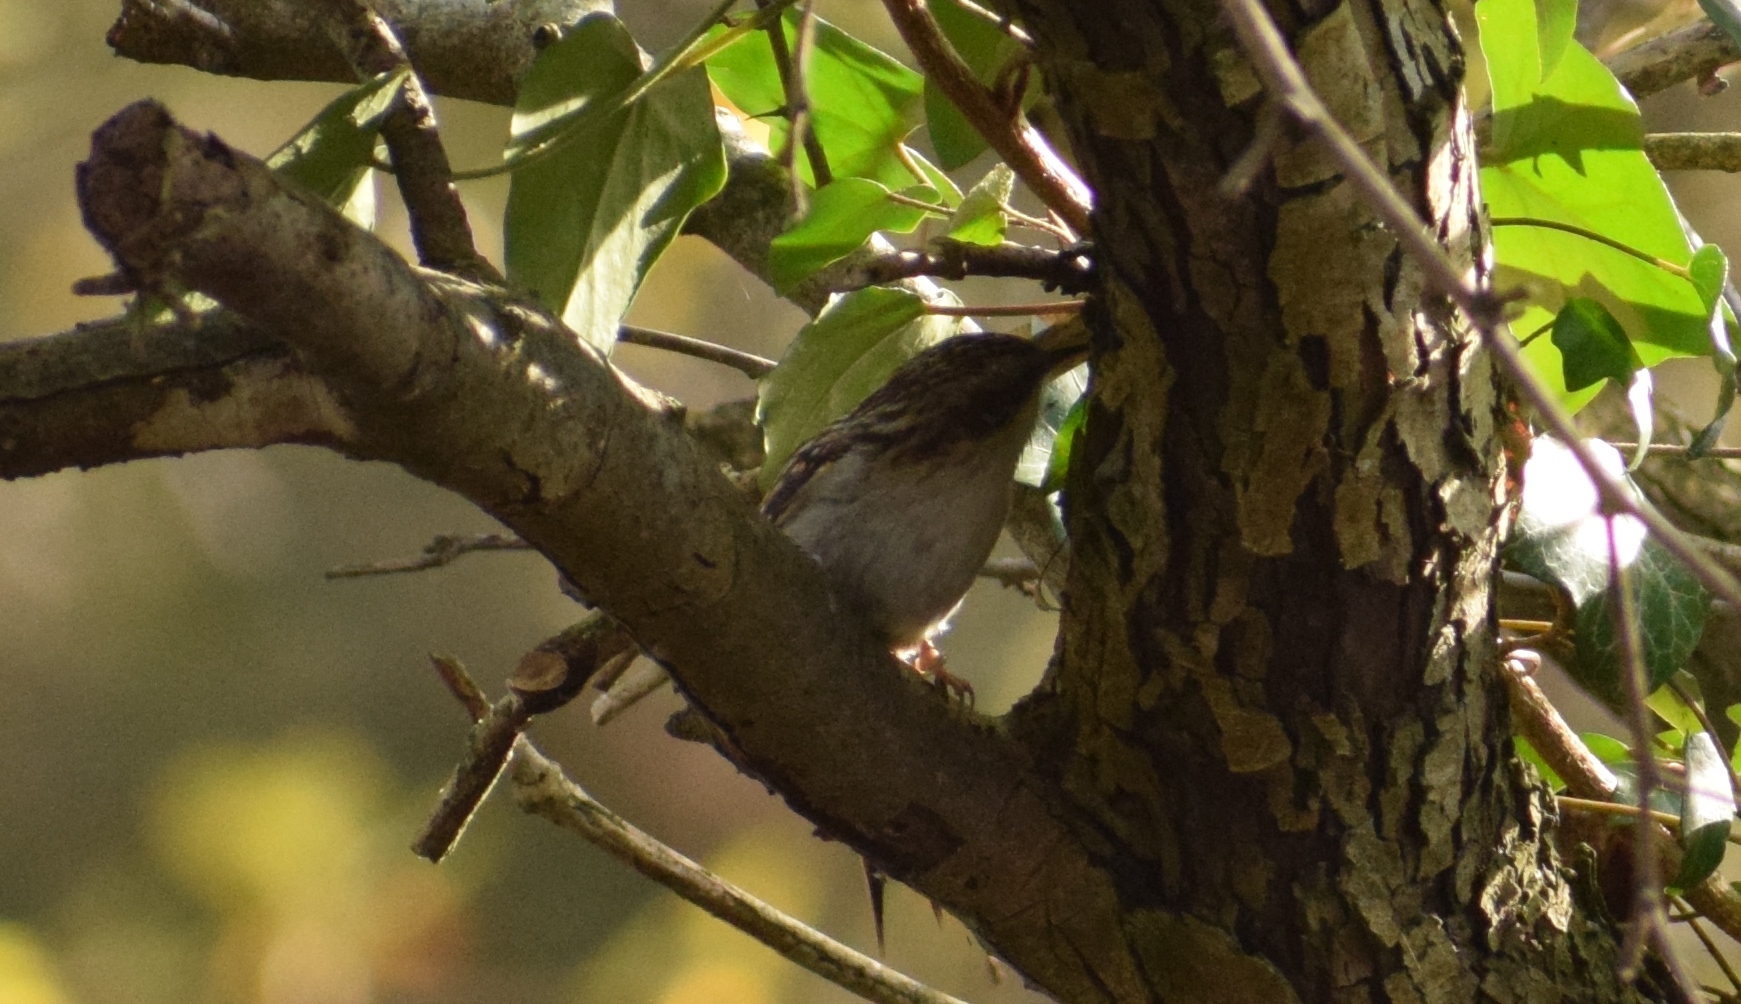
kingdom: Animalia
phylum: Chordata
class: Aves
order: Passeriformes
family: Certhiidae
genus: Certhia
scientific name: Certhia familiaris
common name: Eurasian treecreeper
